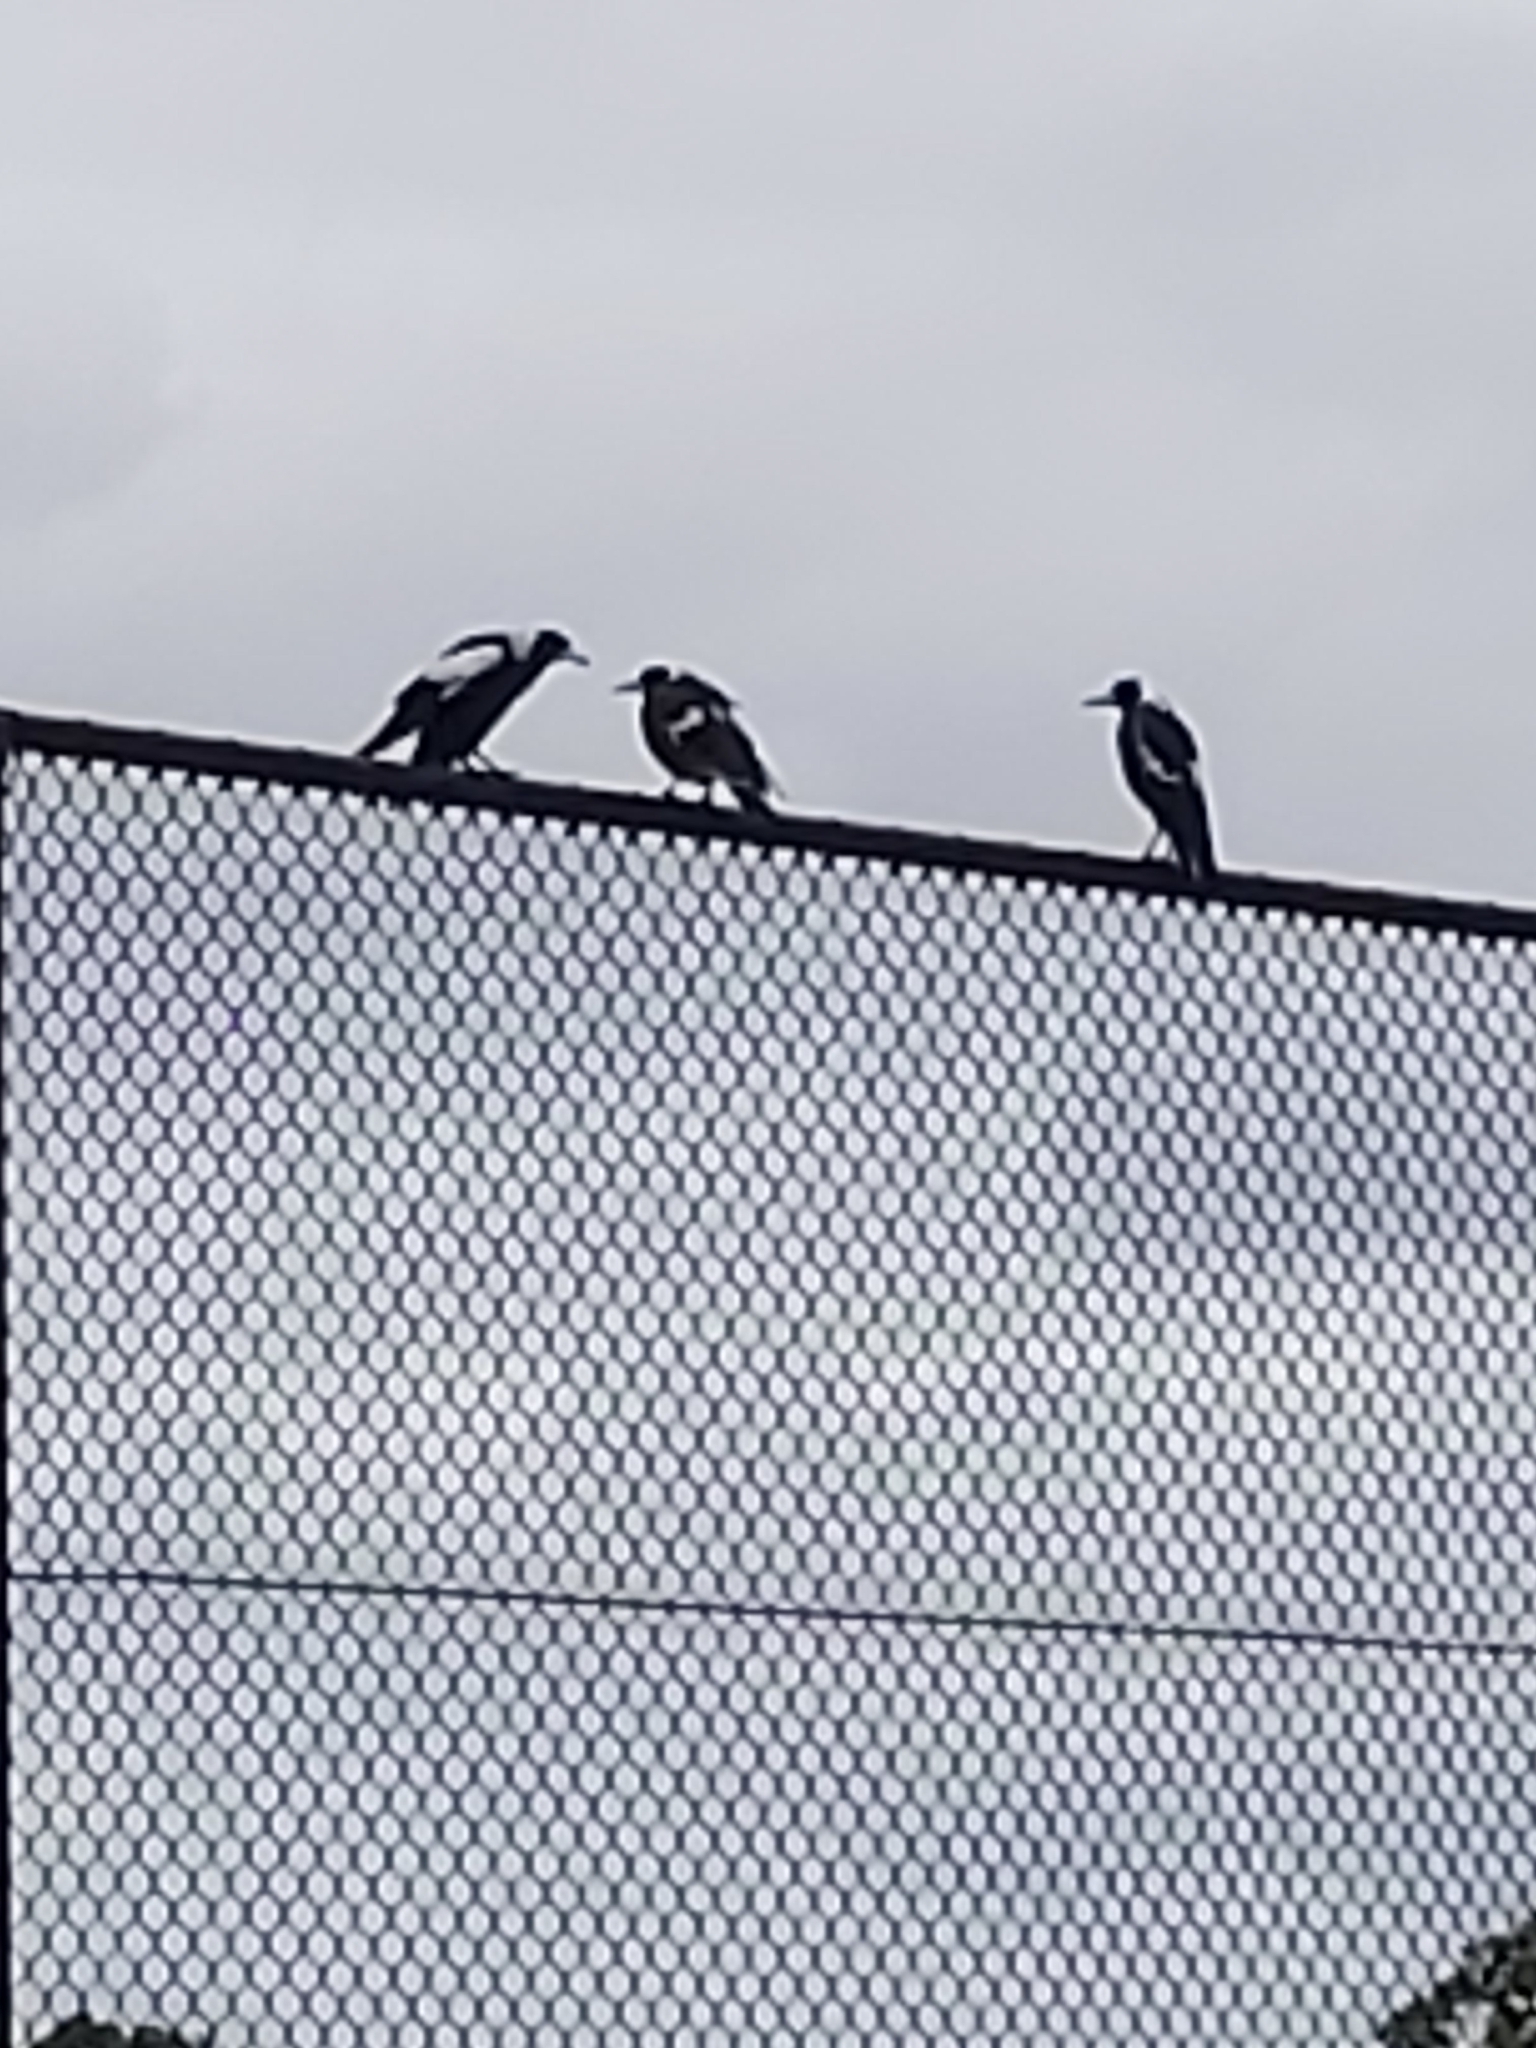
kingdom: Animalia
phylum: Chordata
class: Aves
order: Passeriformes
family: Cracticidae
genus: Gymnorhina
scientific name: Gymnorhina tibicen
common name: Australian magpie
